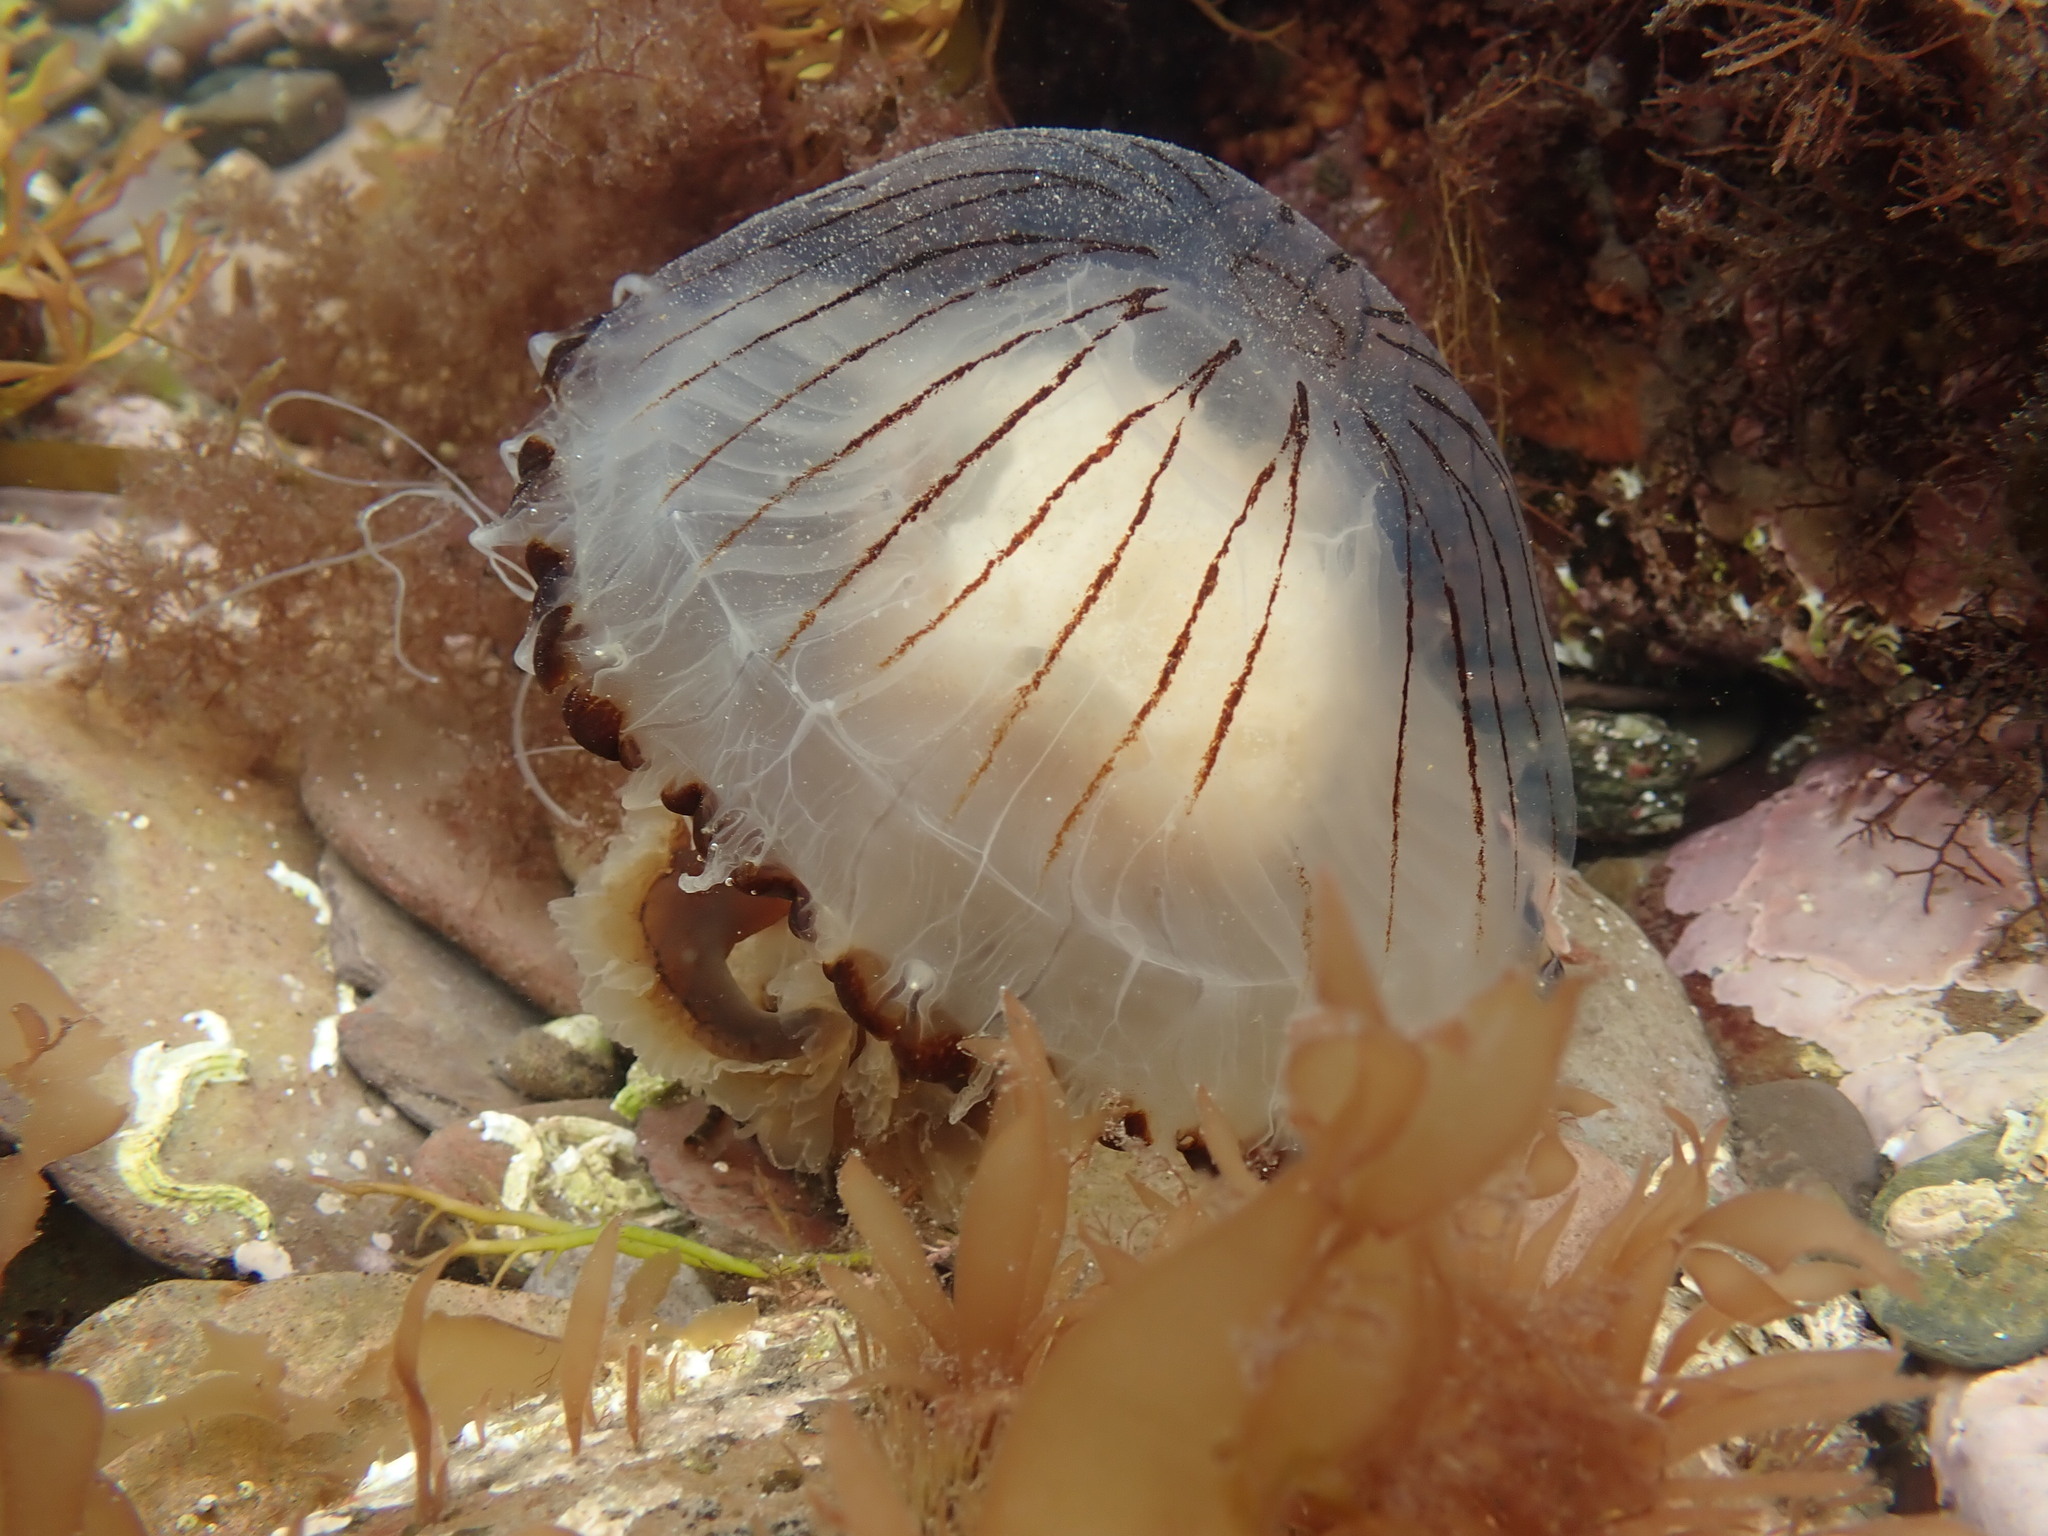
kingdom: Animalia
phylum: Cnidaria
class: Scyphozoa
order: Semaeostomeae
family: Pelagiidae
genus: Chrysaora
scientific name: Chrysaora hysoscella
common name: Compass jellyfish
